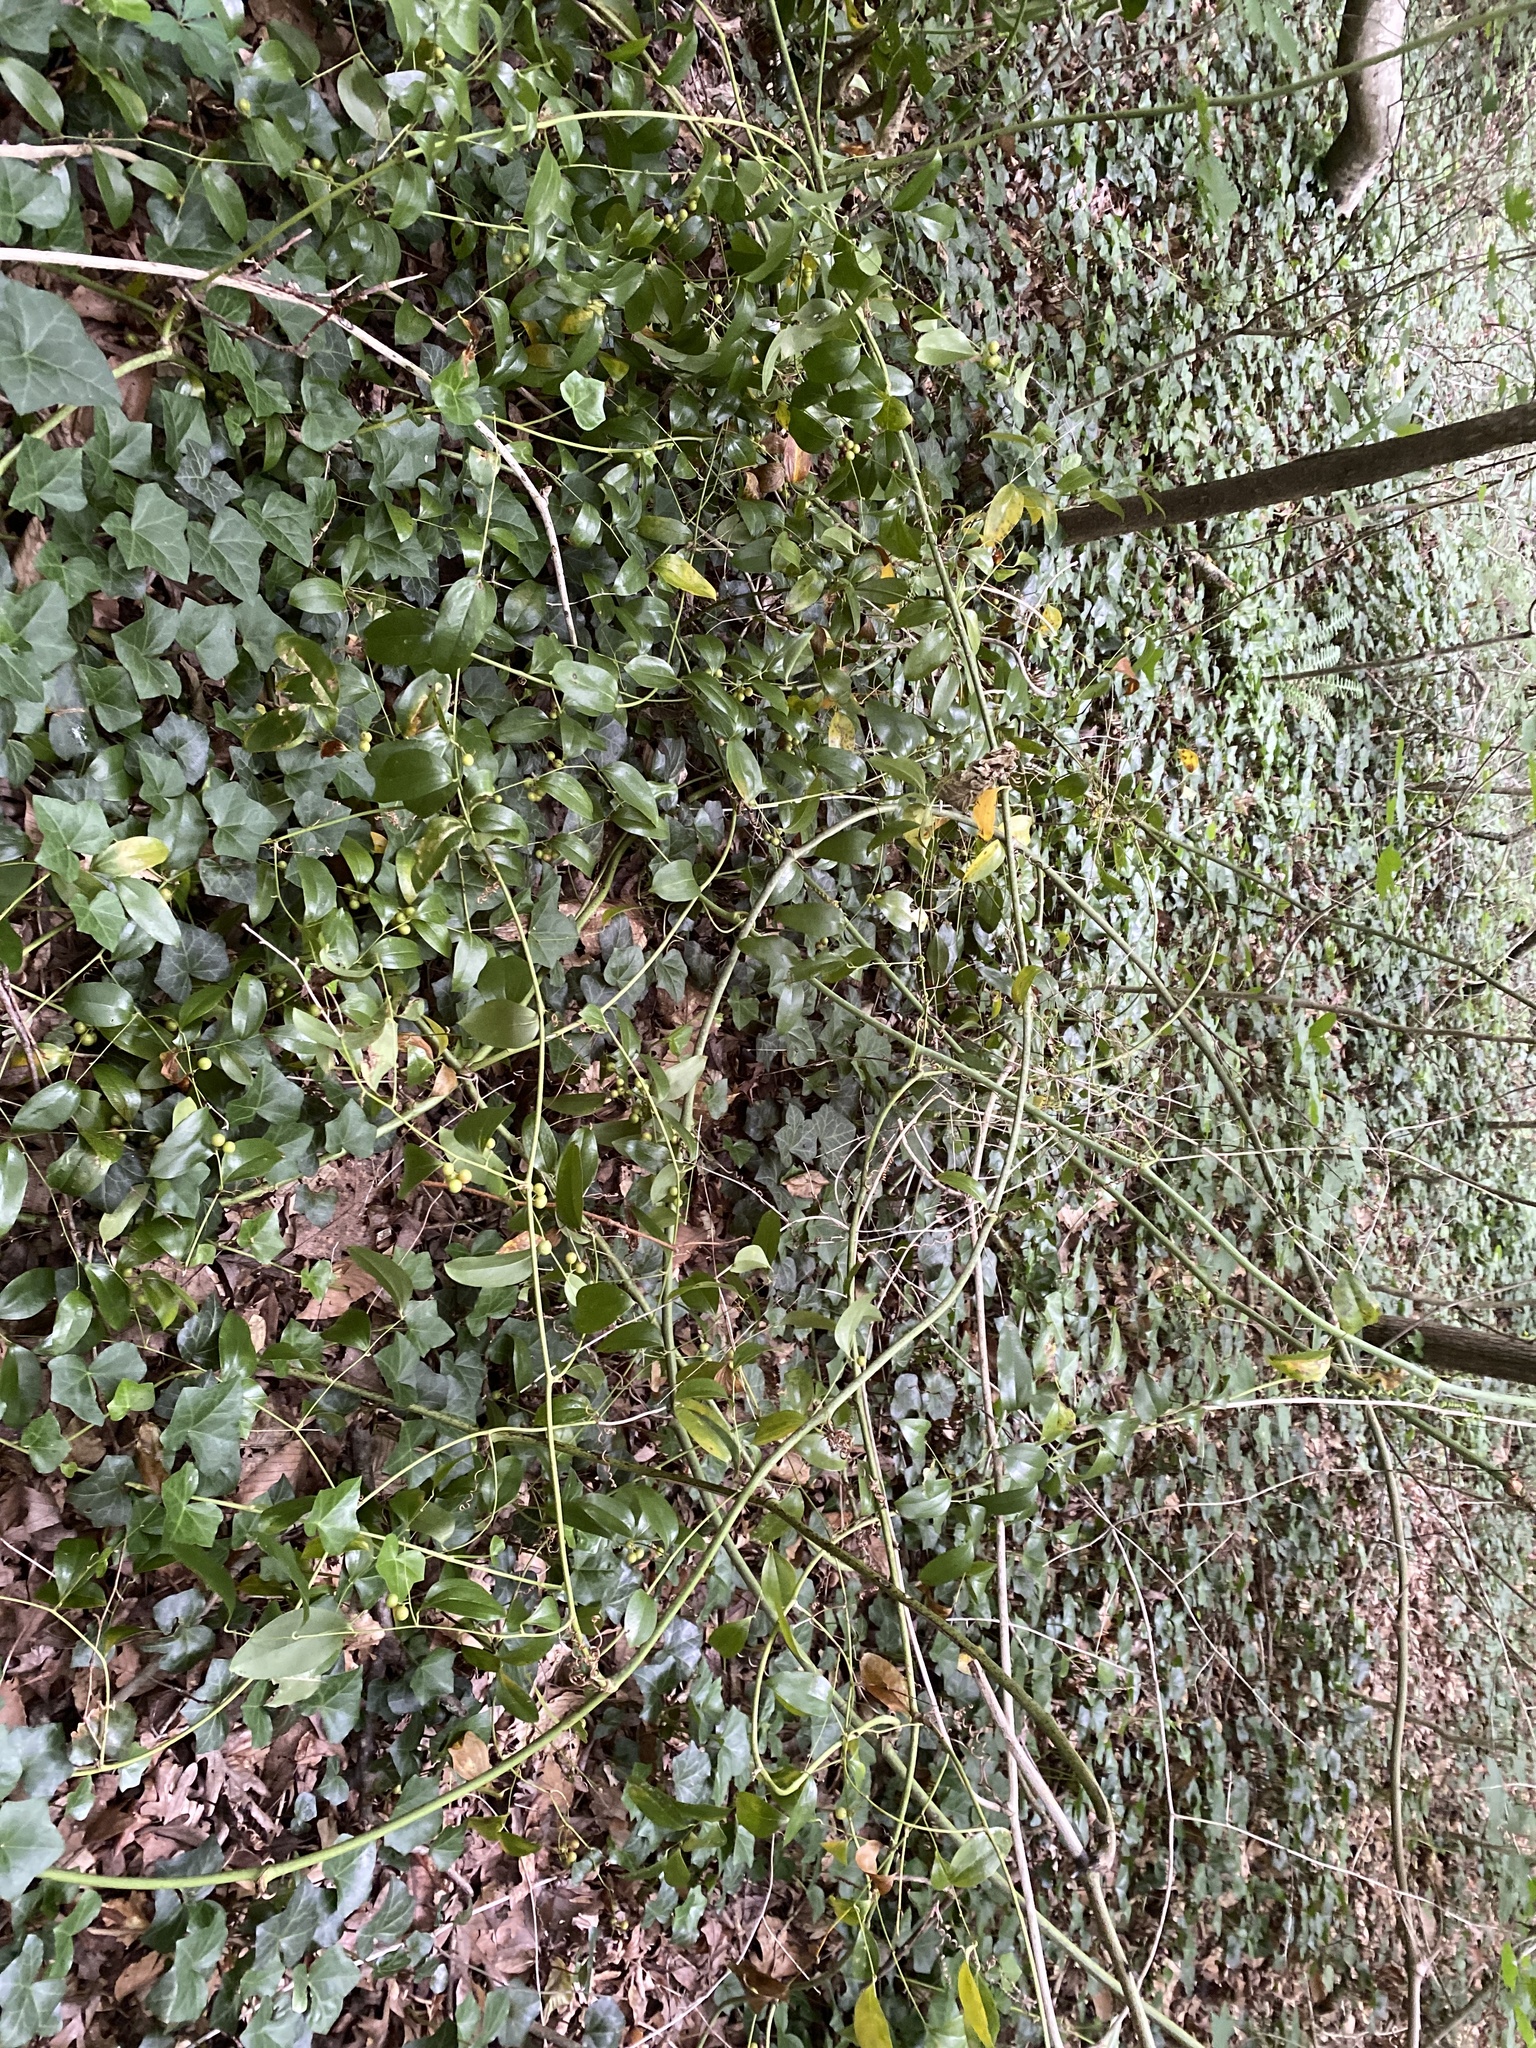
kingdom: Plantae
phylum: Tracheophyta
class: Liliopsida
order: Liliales
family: Smilacaceae
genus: Smilax
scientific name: Smilax maritima
